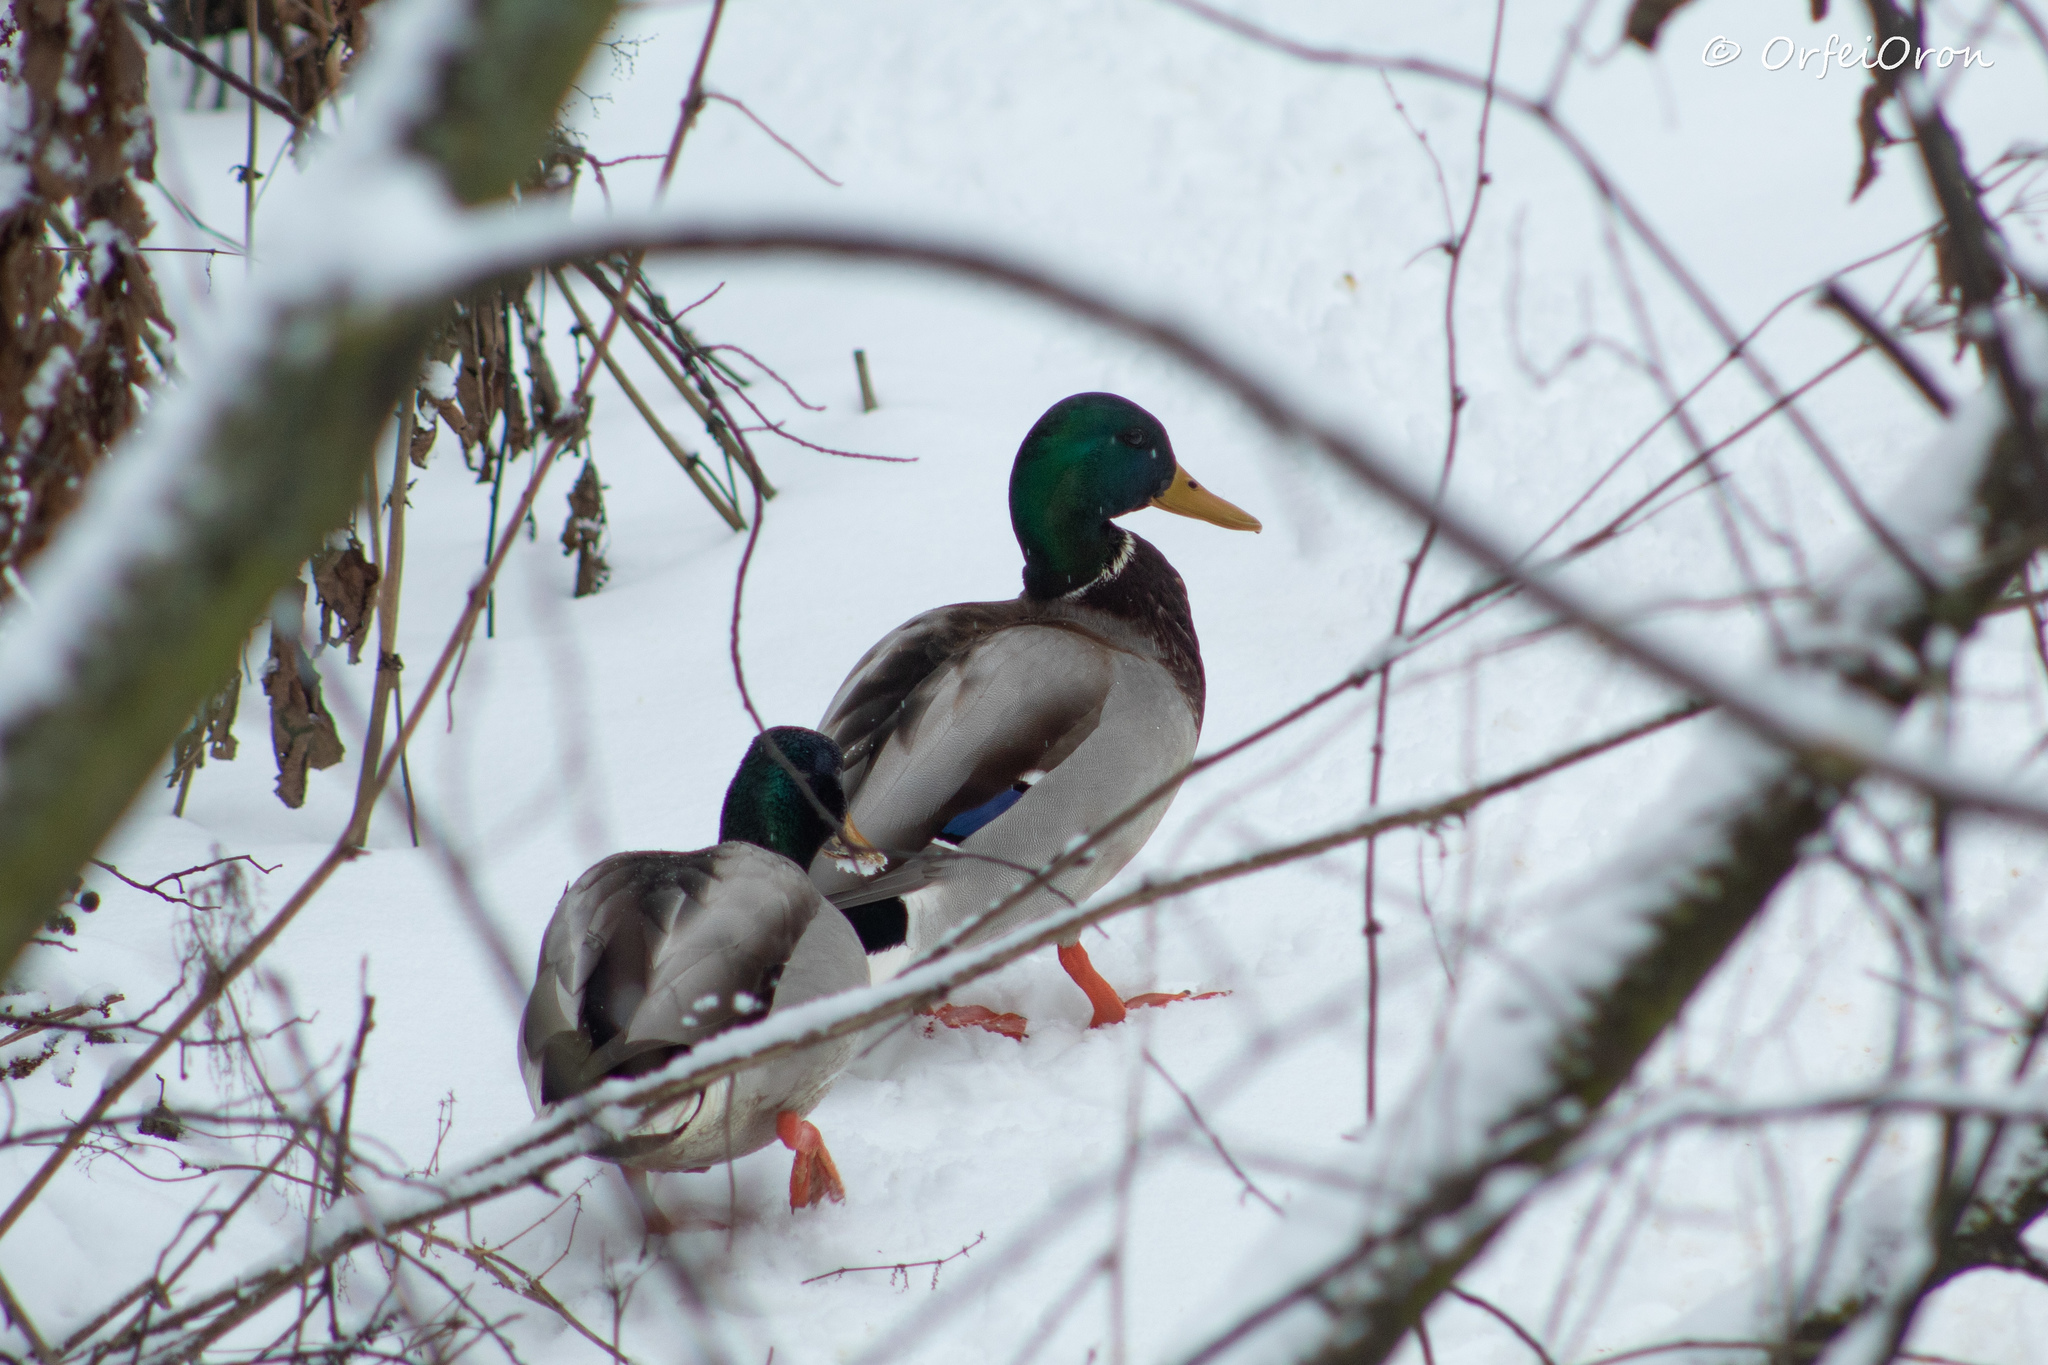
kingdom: Animalia
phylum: Chordata
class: Aves
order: Anseriformes
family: Anatidae
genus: Anas
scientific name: Anas platyrhynchos
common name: Mallard
